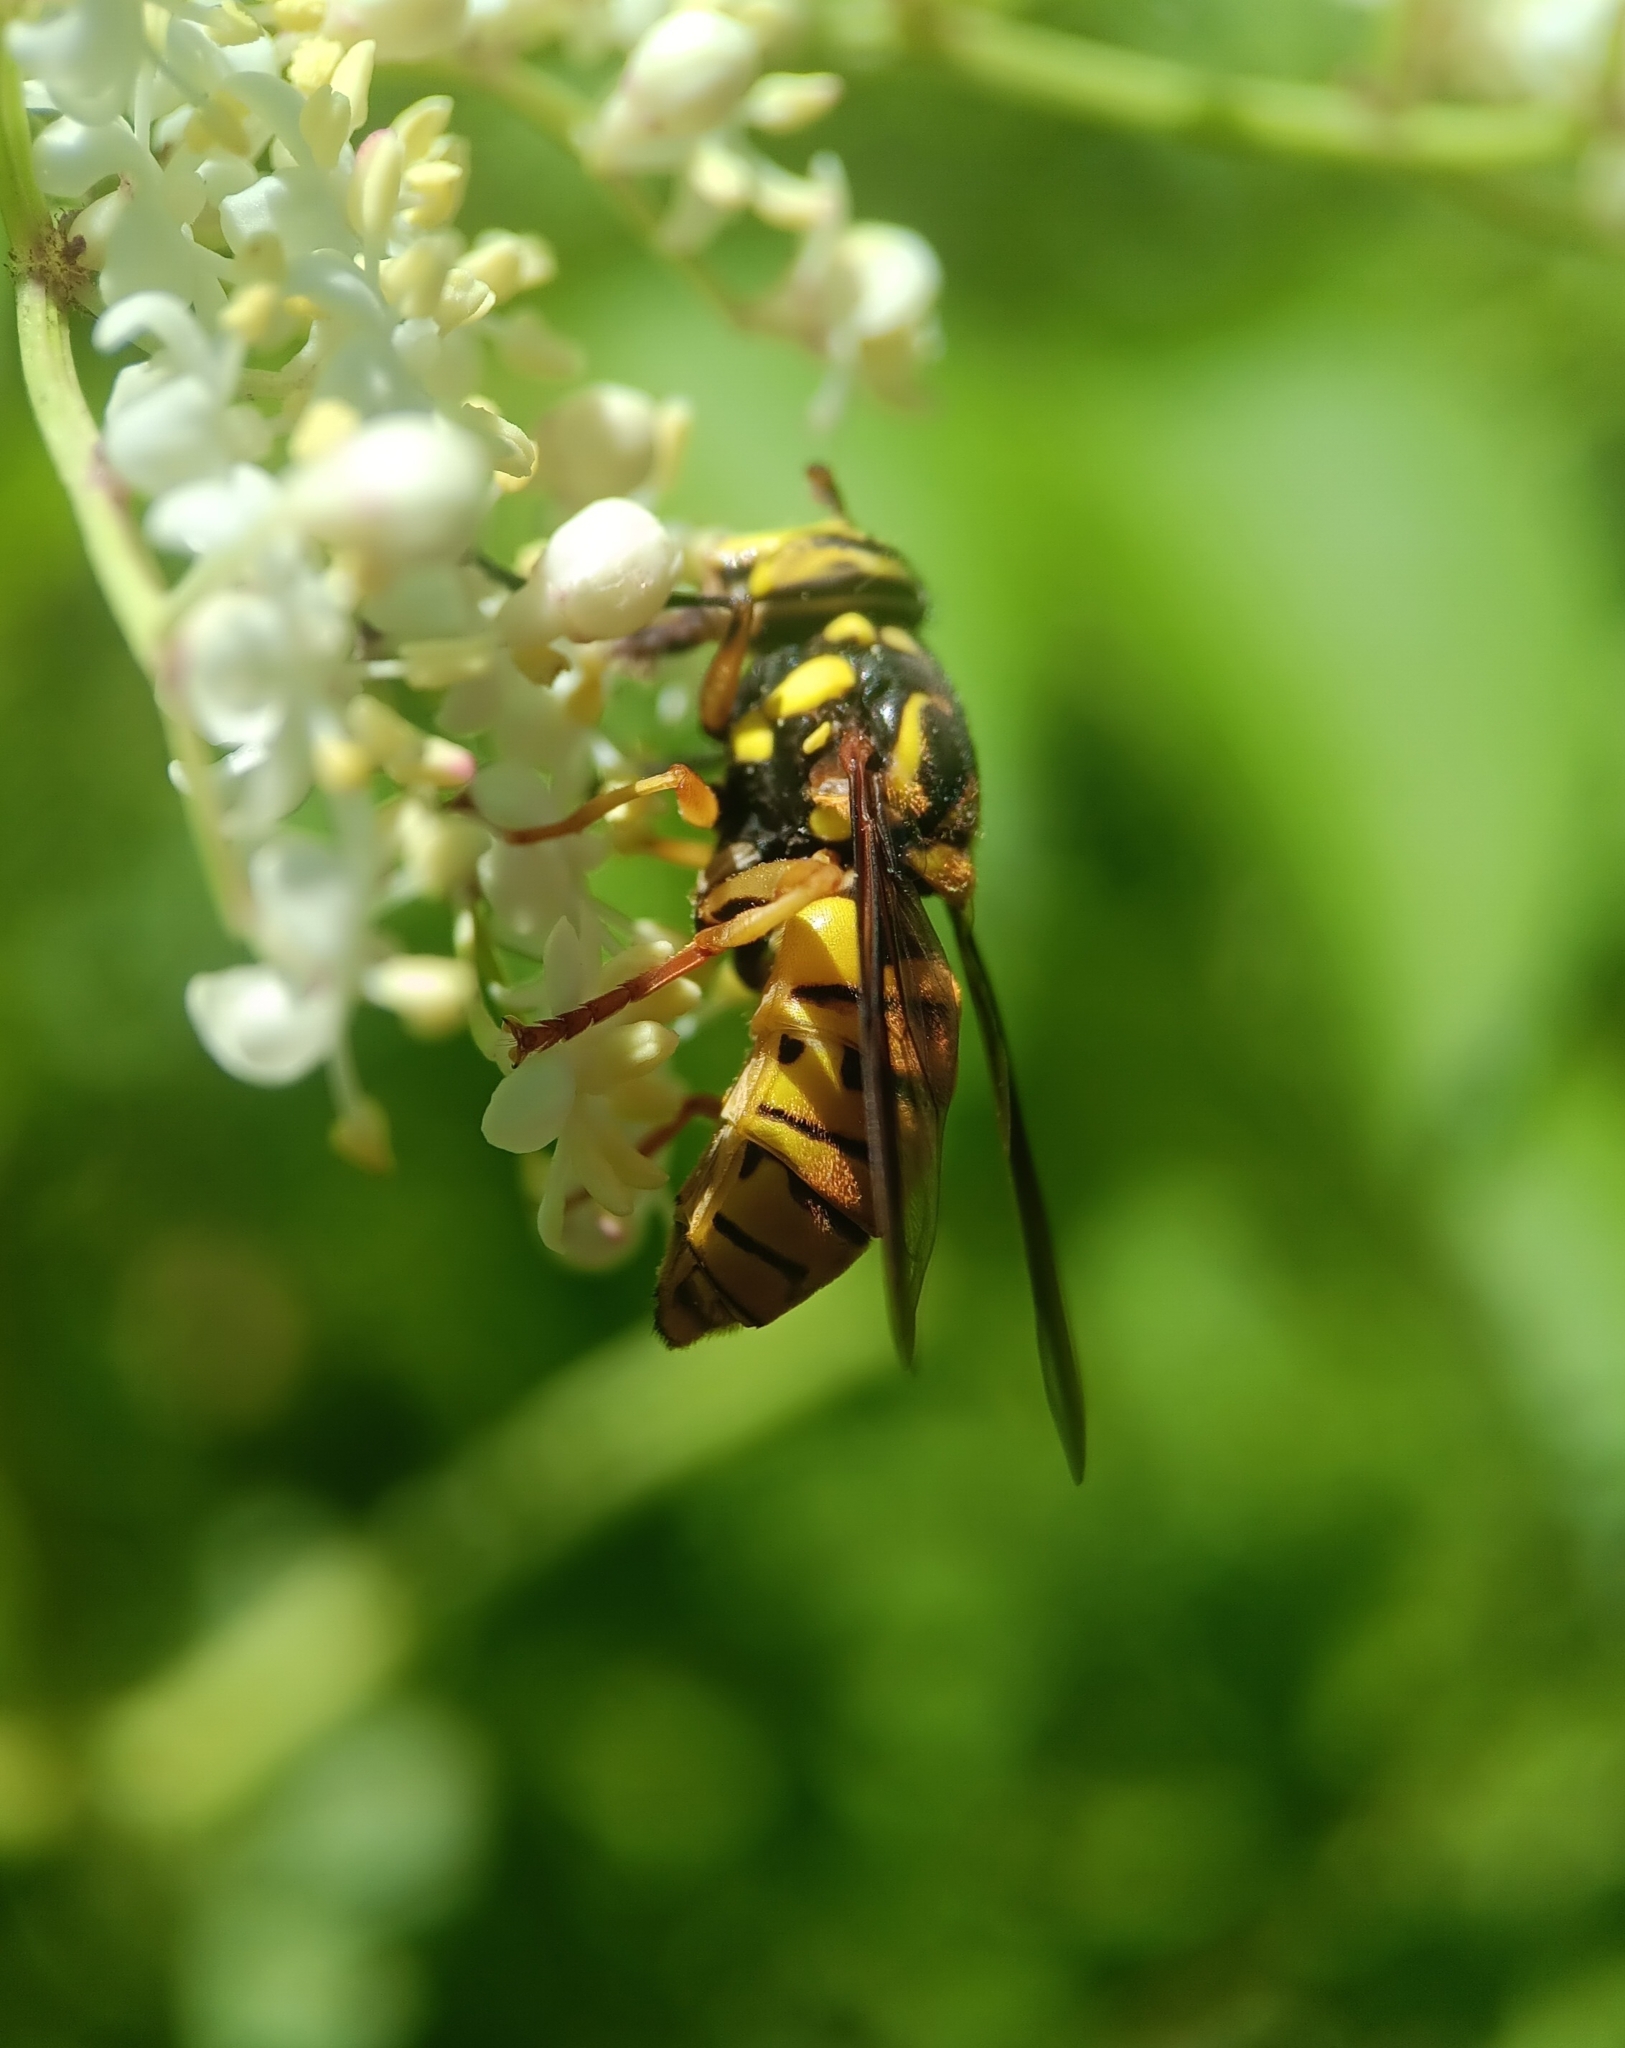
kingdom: Animalia
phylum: Arthropoda
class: Insecta
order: Diptera
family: Syrphidae
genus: Spilomyia
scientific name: Spilomyia alcimus
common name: Broad-banded hornet fly
